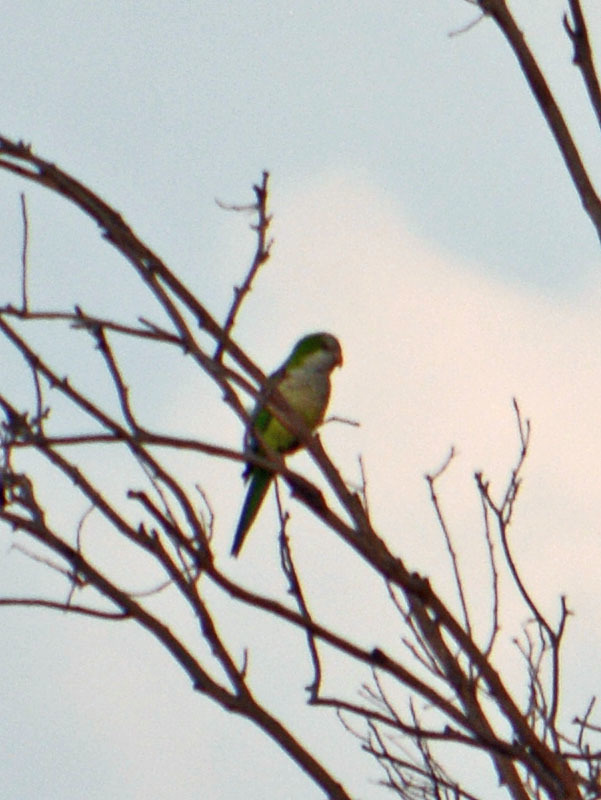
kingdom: Animalia
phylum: Chordata
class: Aves
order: Psittaciformes
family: Psittacidae
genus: Myiopsitta
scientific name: Myiopsitta monachus
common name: Monk parakeet
